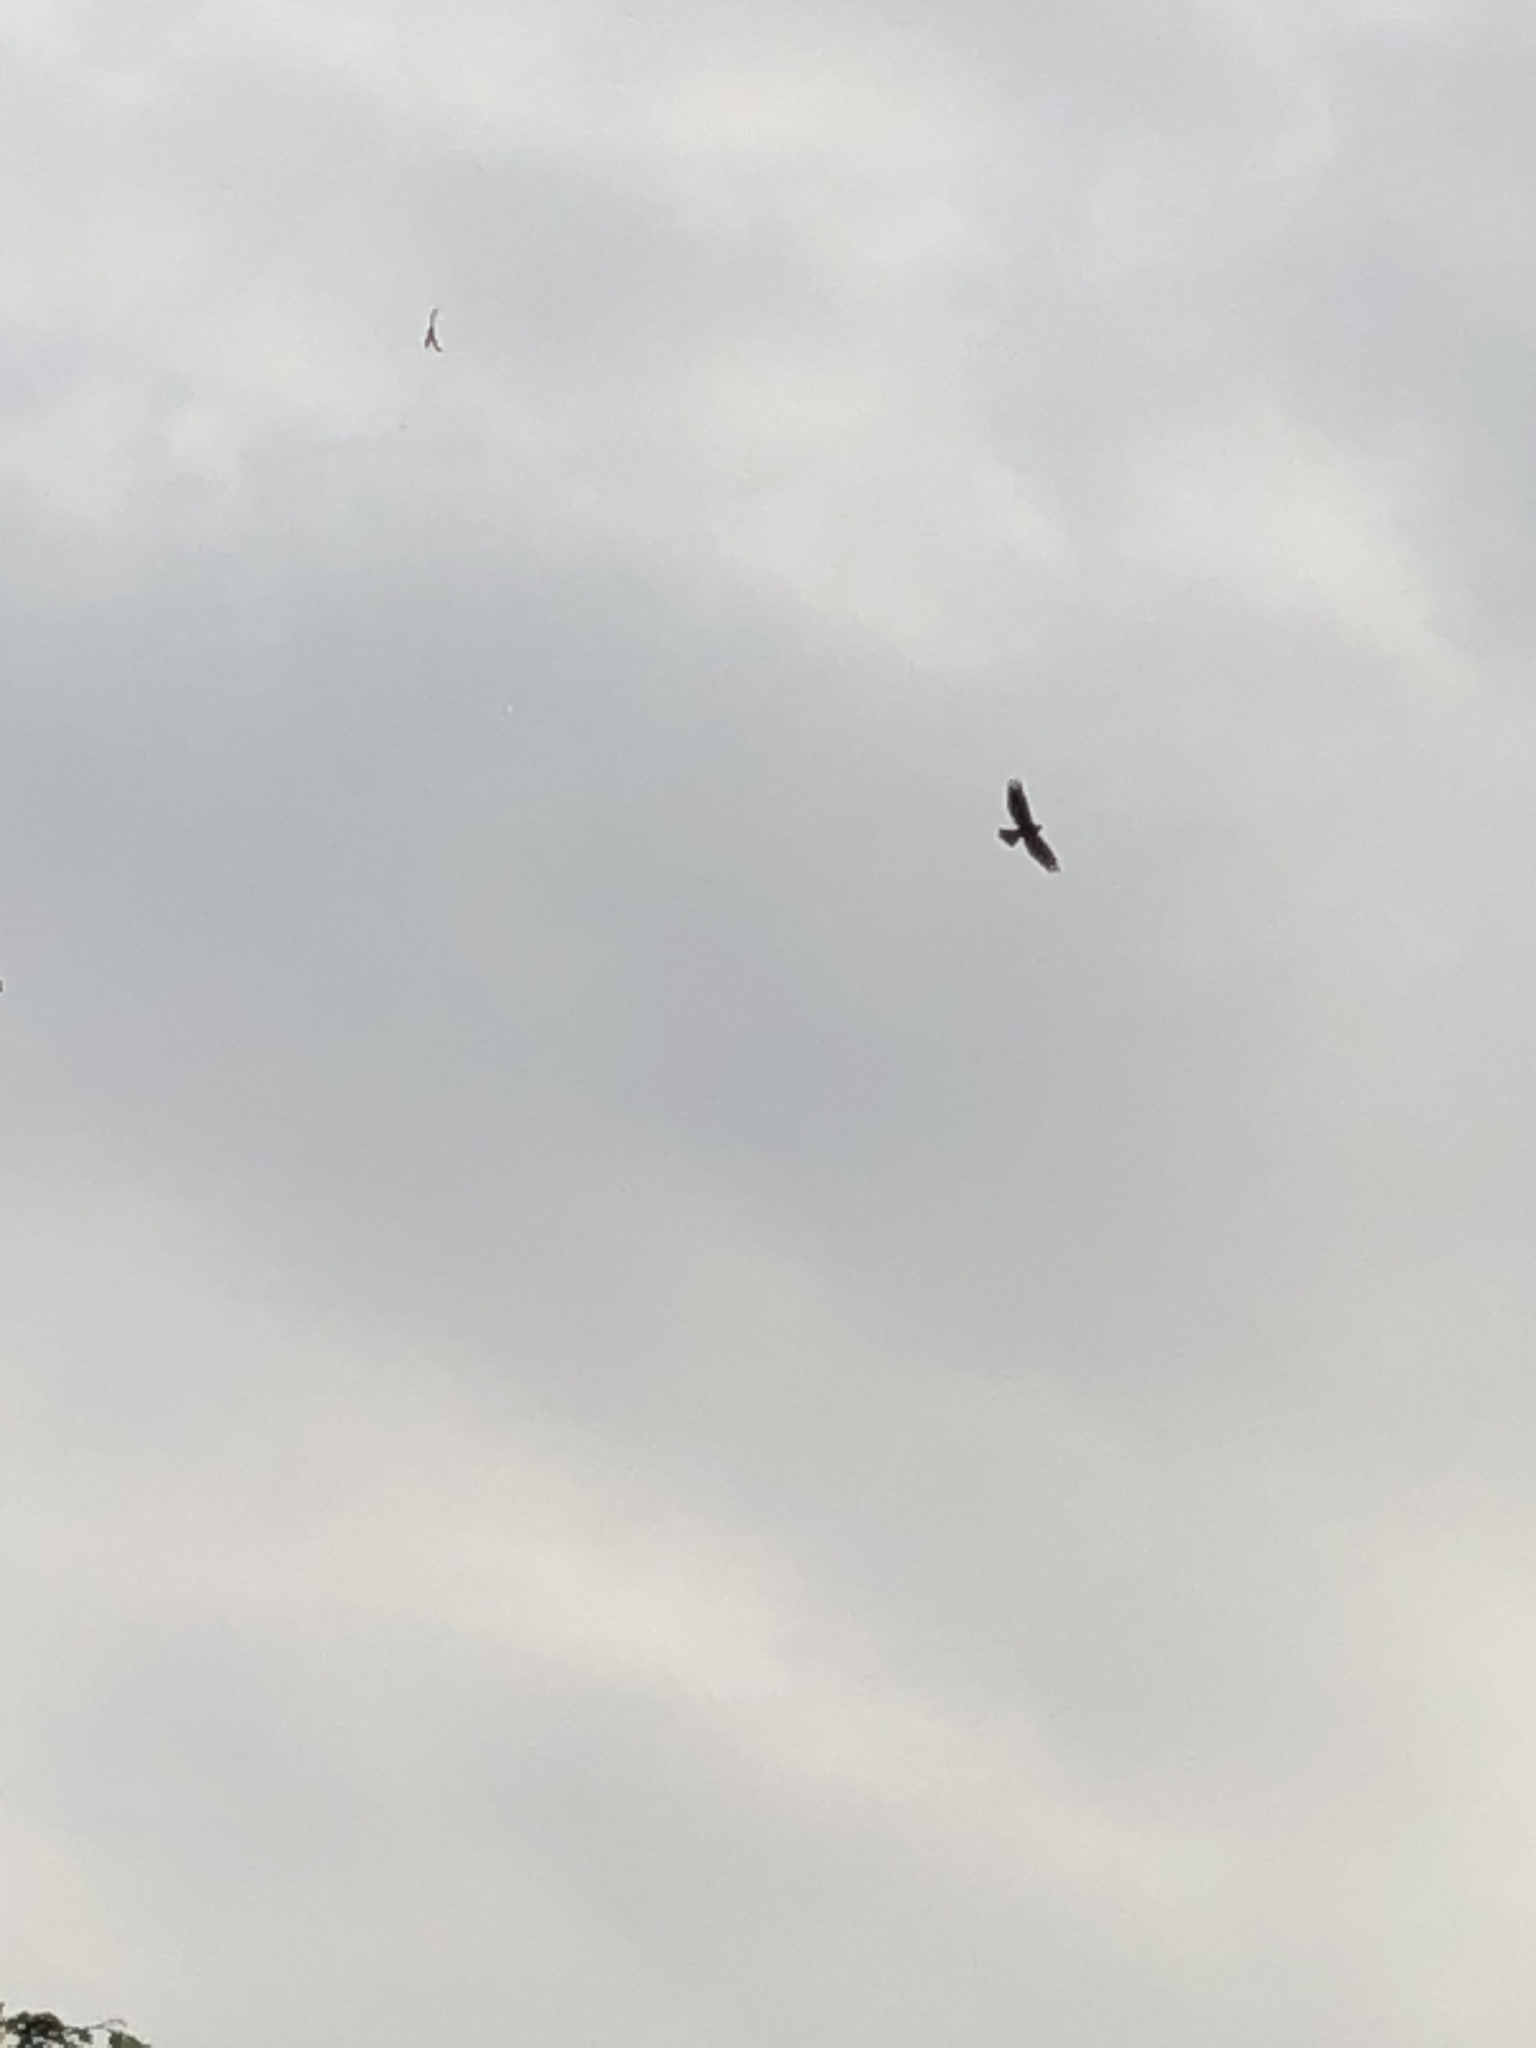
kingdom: Animalia
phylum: Chordata
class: Aves
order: Accipitriformes
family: Accipitridae
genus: Parabuteo
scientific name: Parabuteo unicinctus
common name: Harris's hawk
